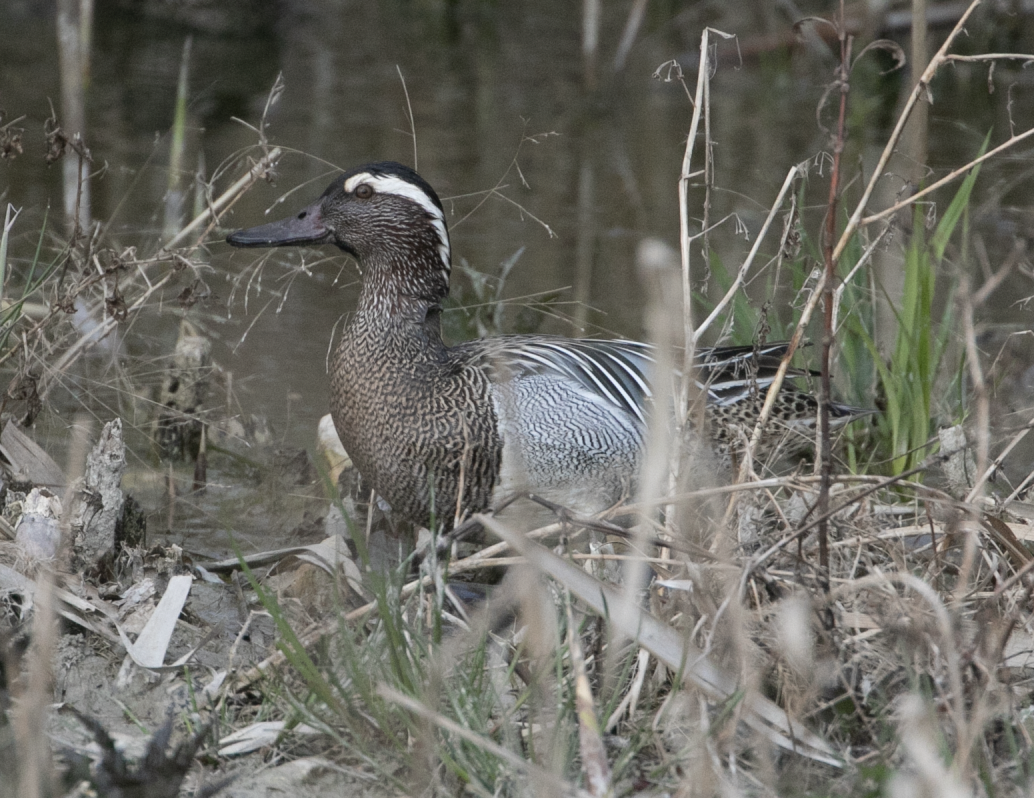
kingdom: Animalia
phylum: Chordata
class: Aves
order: Anseriformes
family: Anatidae
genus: Spatula
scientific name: Spatula querquedula
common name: Garganey
